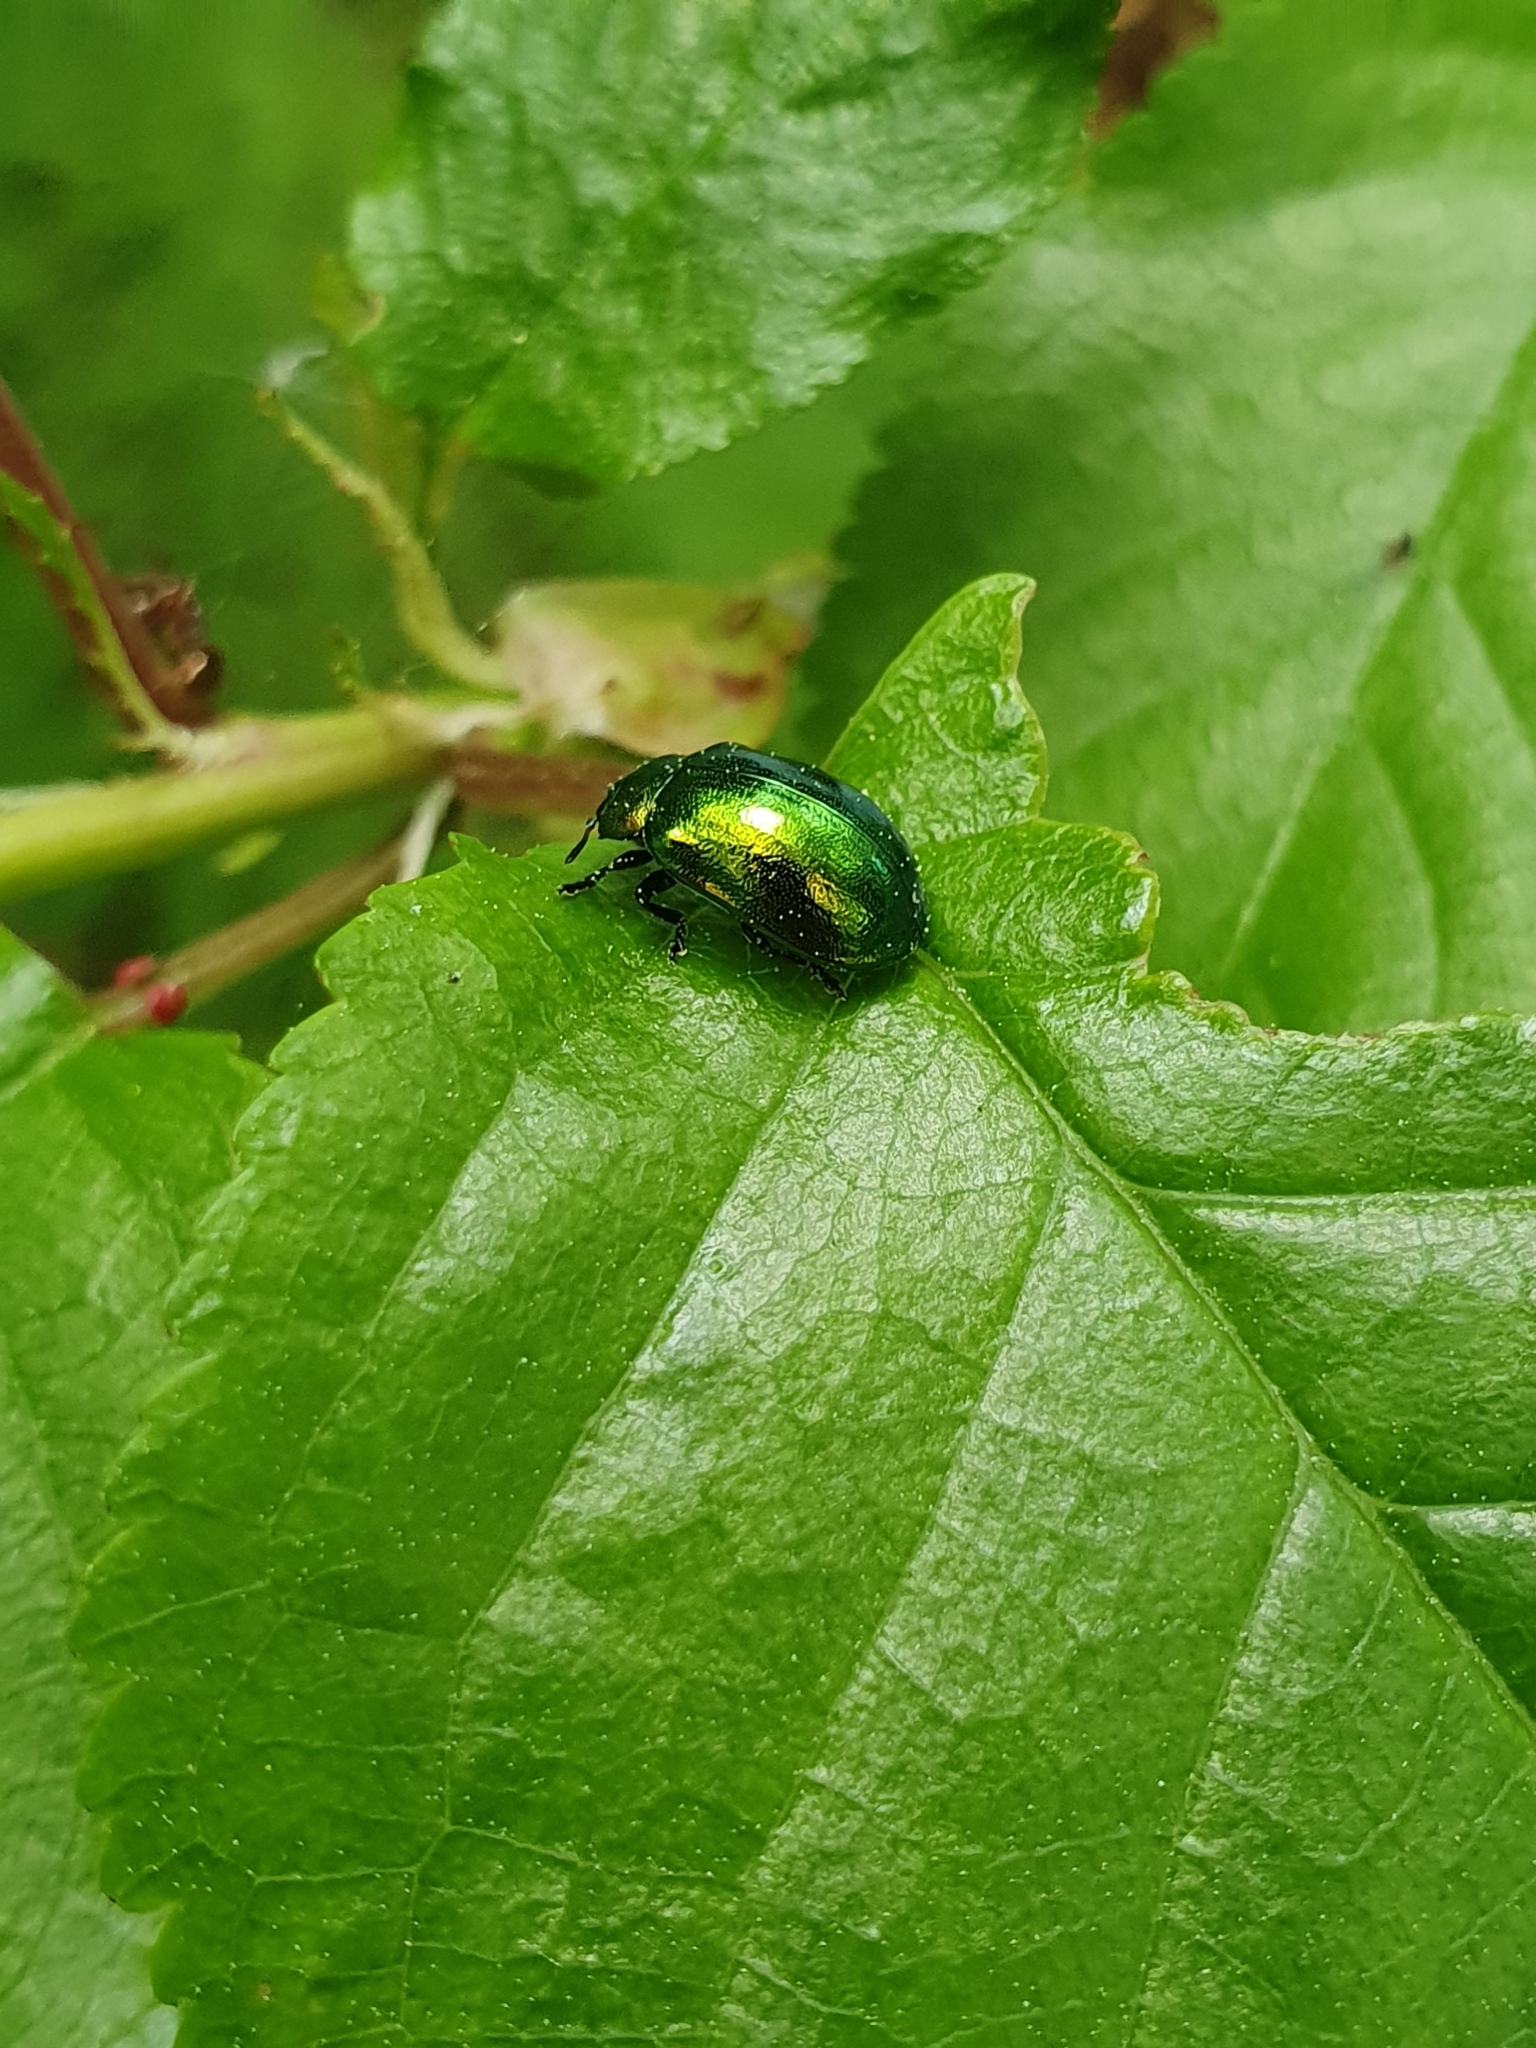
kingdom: Animalia
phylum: Arthropoda
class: Insecta
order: Coleoptera
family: Chrysomelidae
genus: Plagiosterna
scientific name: Plagiosterna aenea
